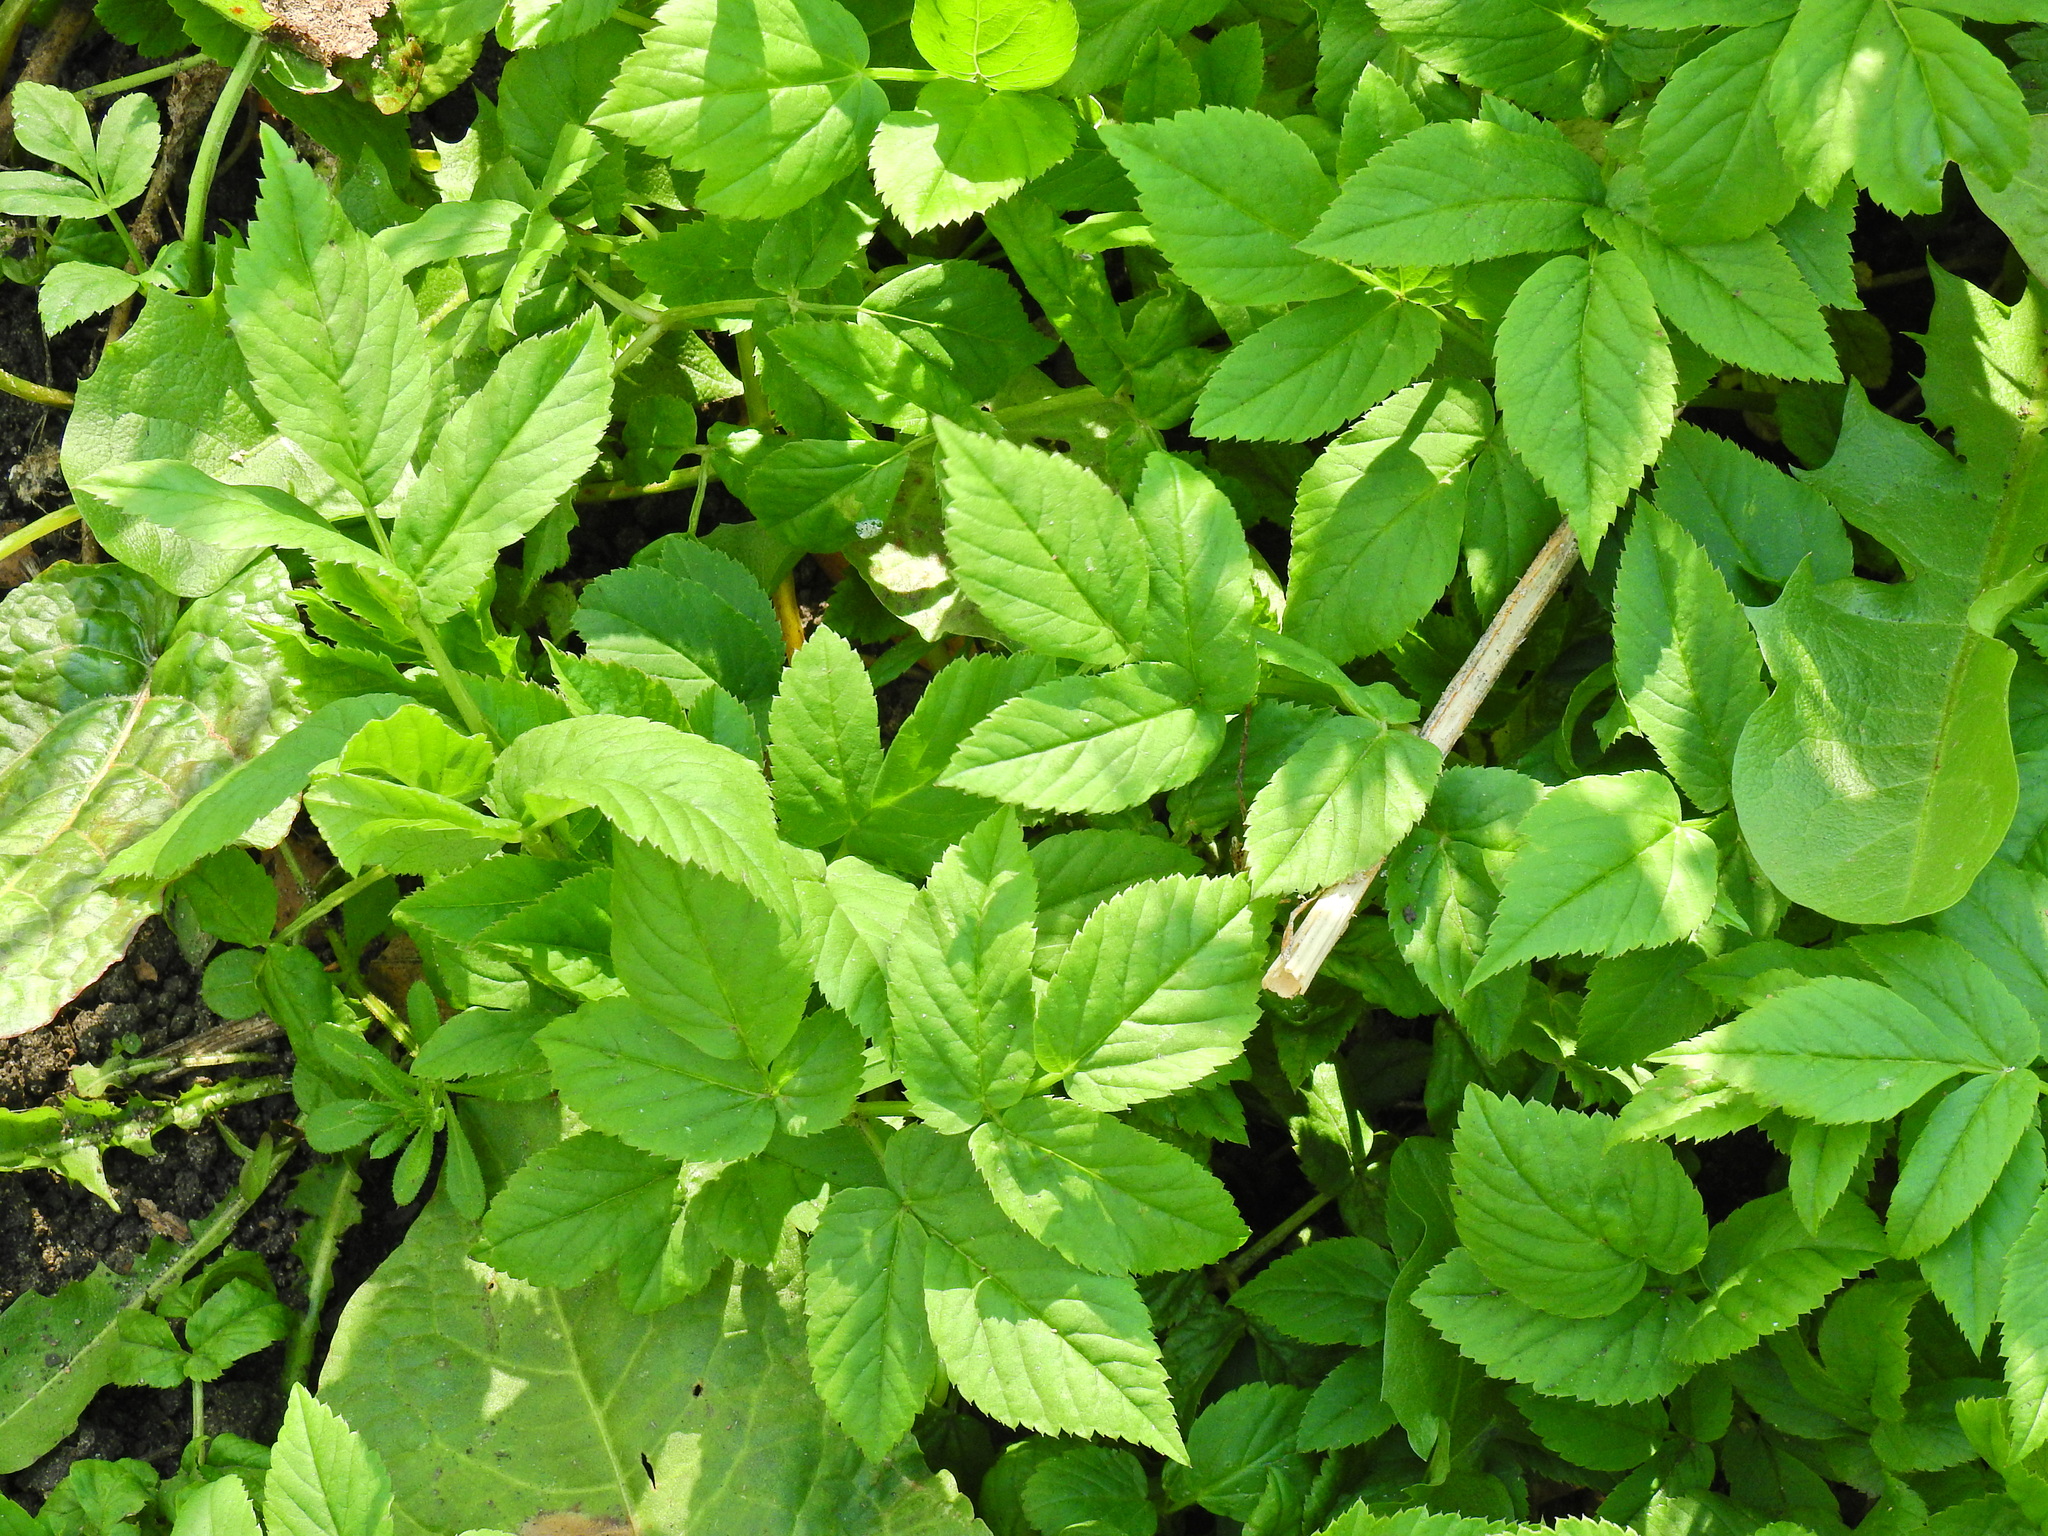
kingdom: Plantae
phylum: Tracheophyta
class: Magnoliopsida
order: Apiales
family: Apiaceae
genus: Aegopodium
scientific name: Aegopodium podagraria
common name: Ground-elder
